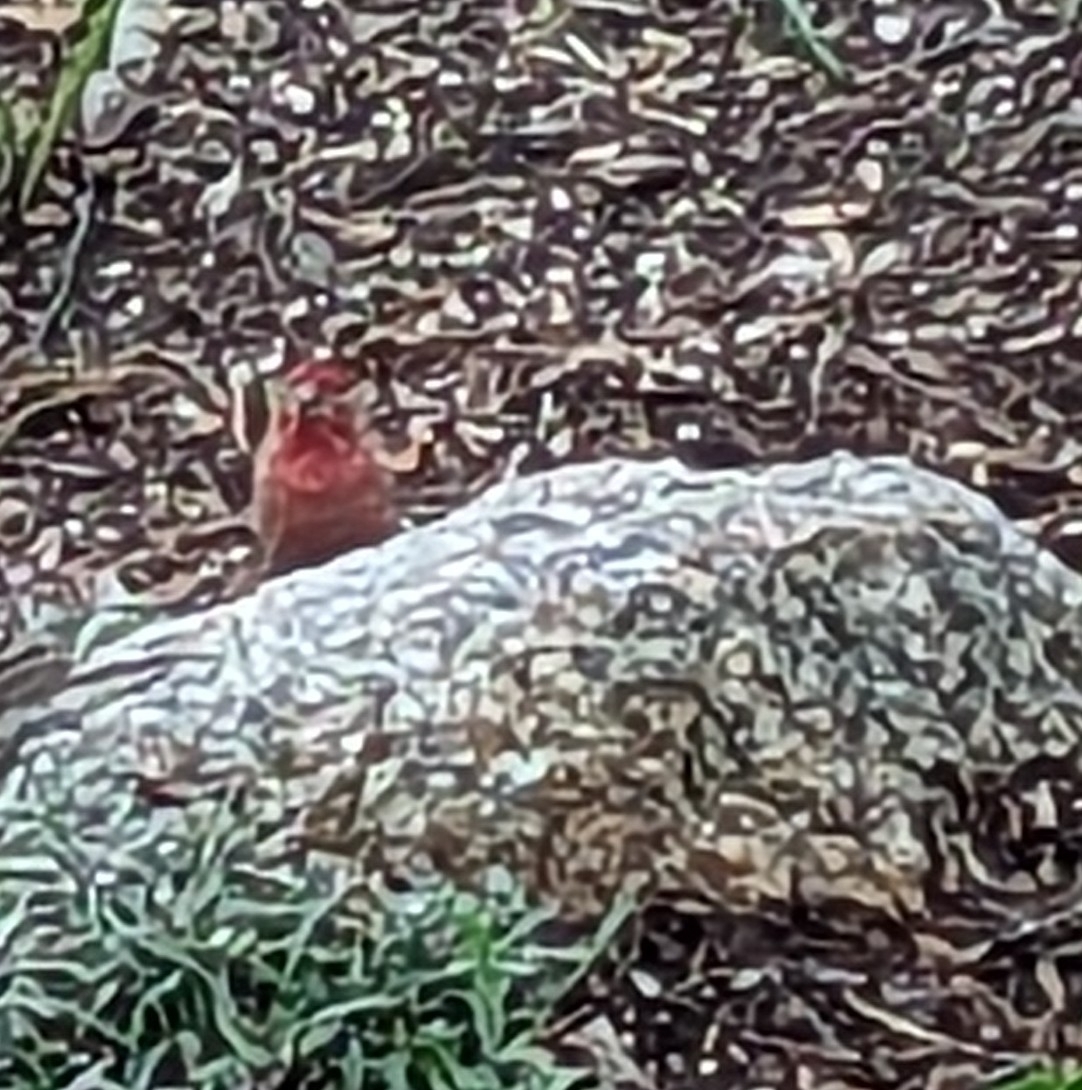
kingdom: Animalia
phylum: Chordata
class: Aves
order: Passeriformes
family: Fringillidae
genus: Haemorhous
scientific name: Haemorhous mexicanus
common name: House finch
